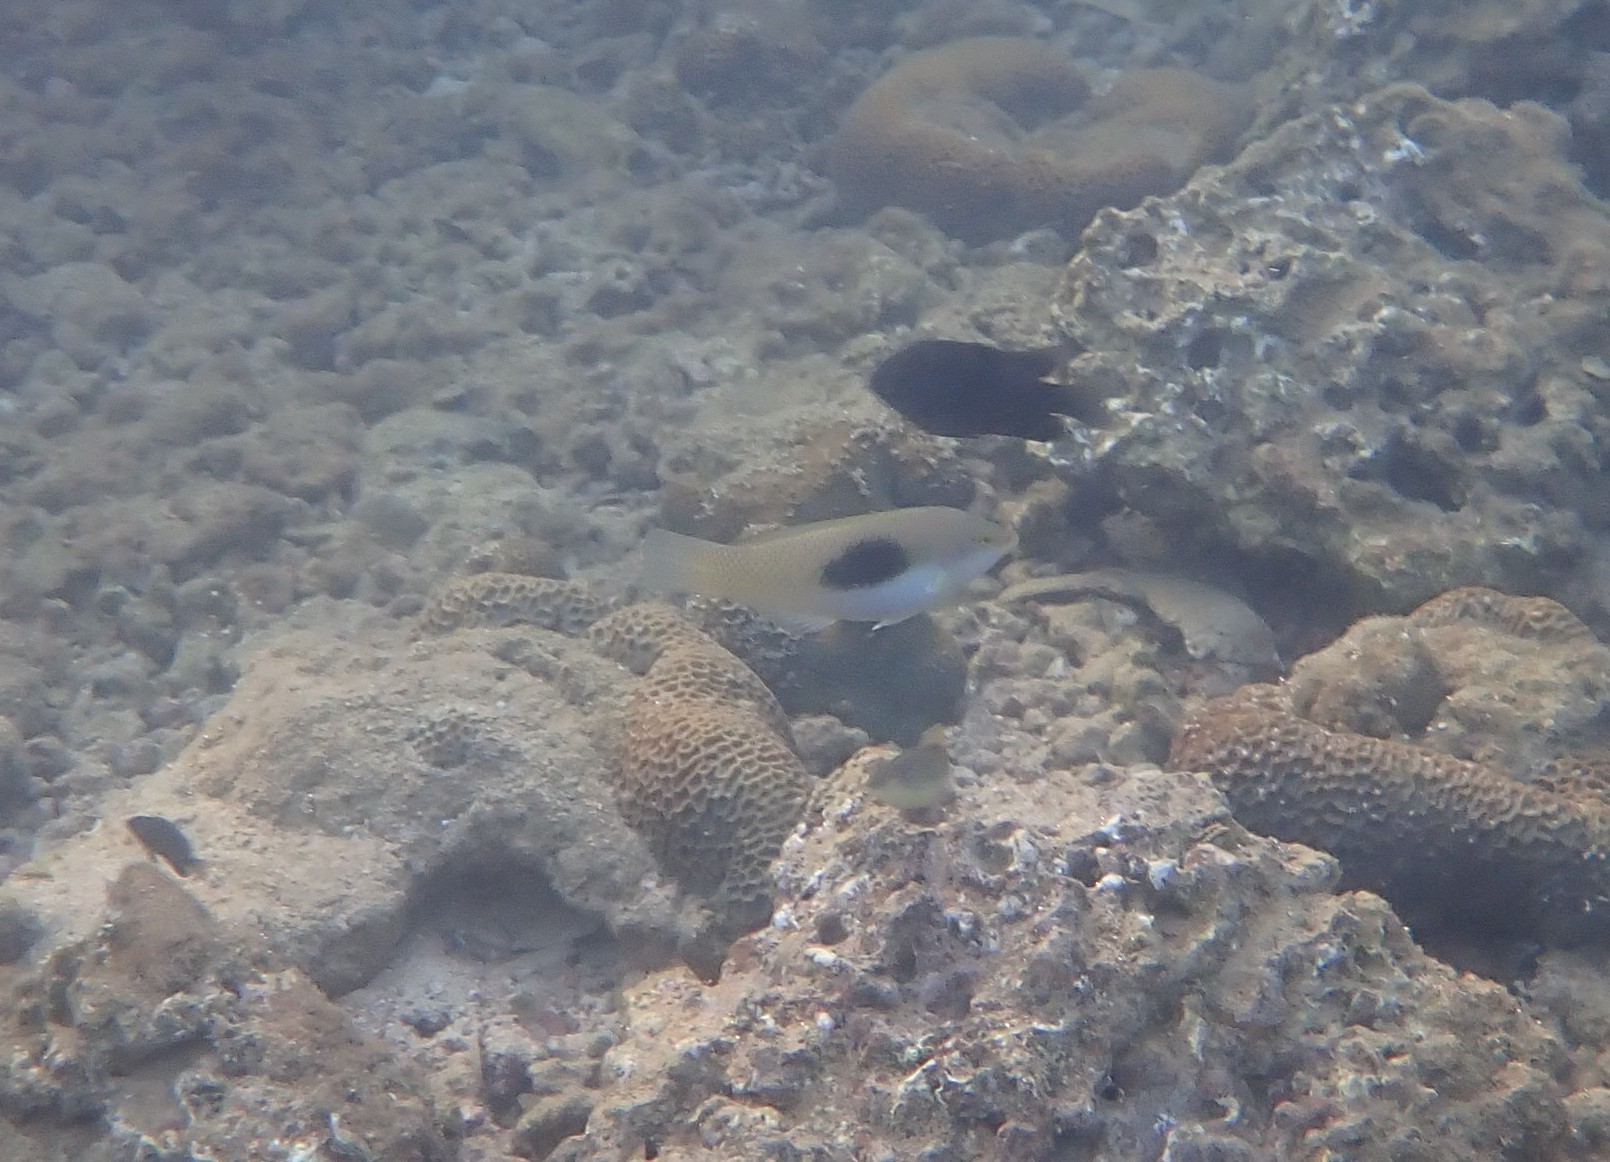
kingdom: Animalia
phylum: Chordata
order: Perciformes
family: Labridae
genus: Halichoeres
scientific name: Halichoeres chloropterus
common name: Pastel-green wrasse
